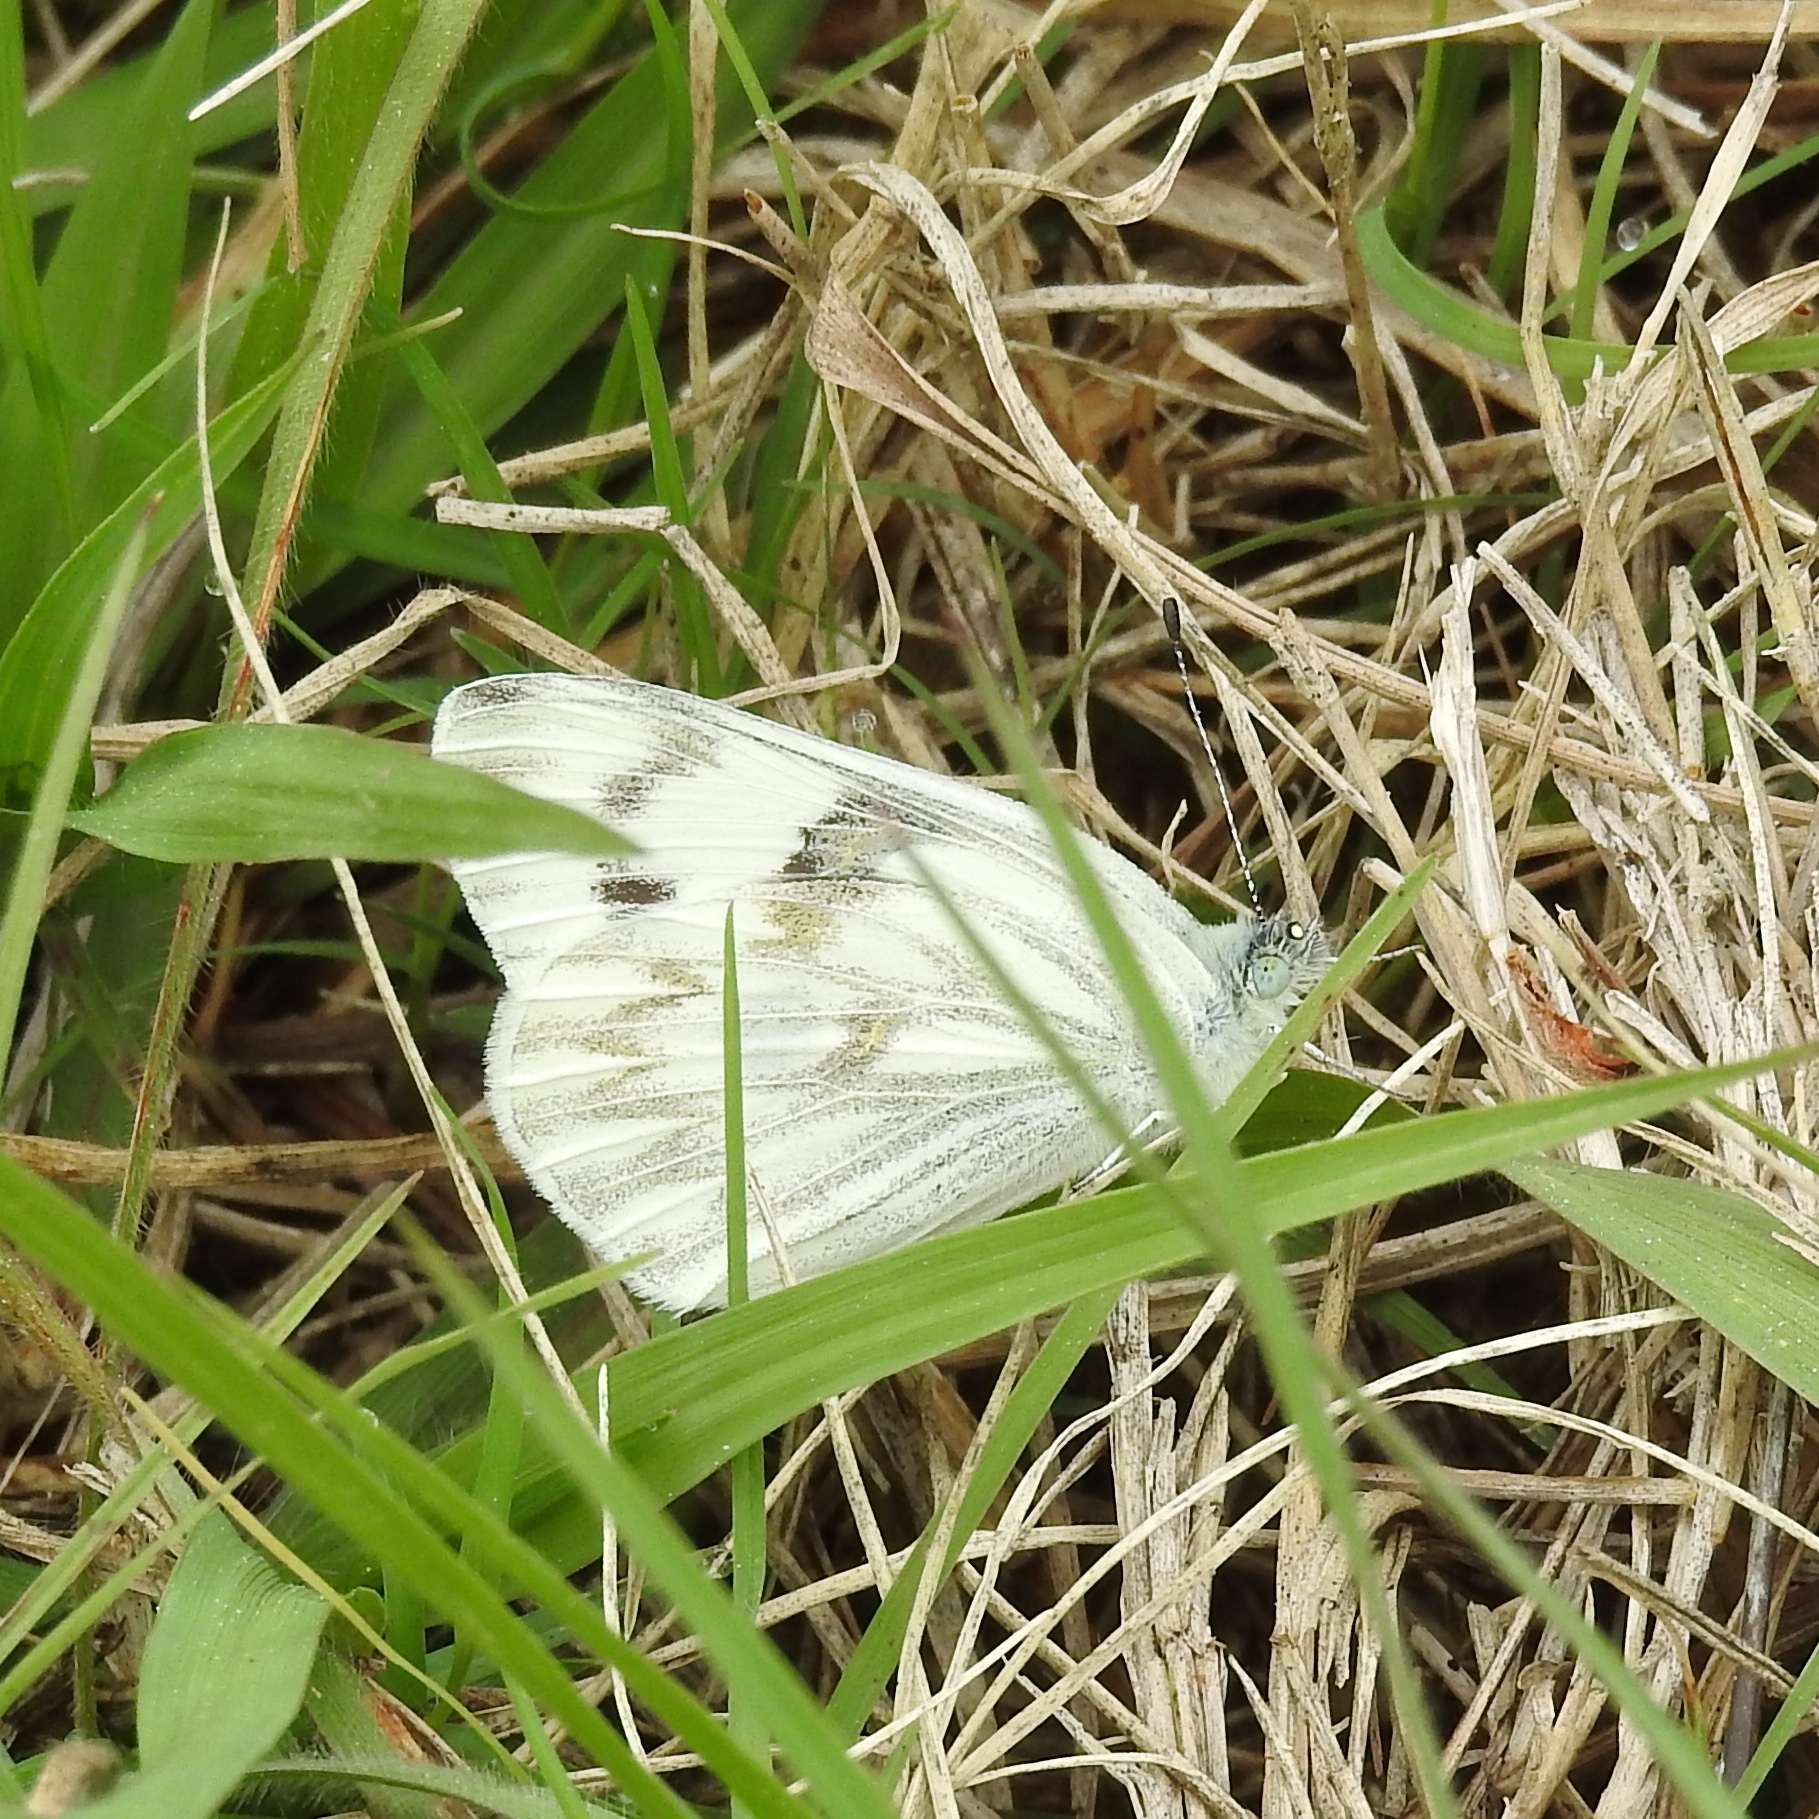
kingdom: Animalia
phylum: Arthropoda
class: Insecta
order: Lepidoptera
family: Pieridae
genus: Pontia
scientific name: Pontia protodice
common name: Checkered white
